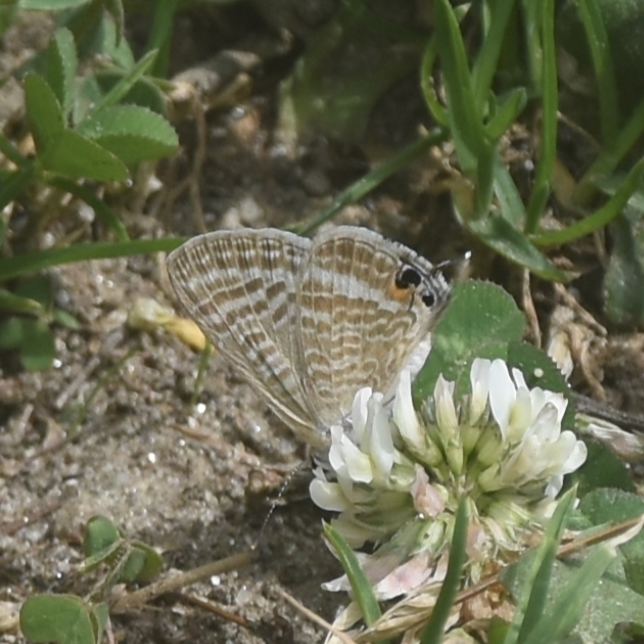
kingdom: Animalia
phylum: Arthropoda
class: Insecta
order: Lepidoptera
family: Lycaenidae
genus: Lampides
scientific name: Lampides boeticus
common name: Long-tailed blue
